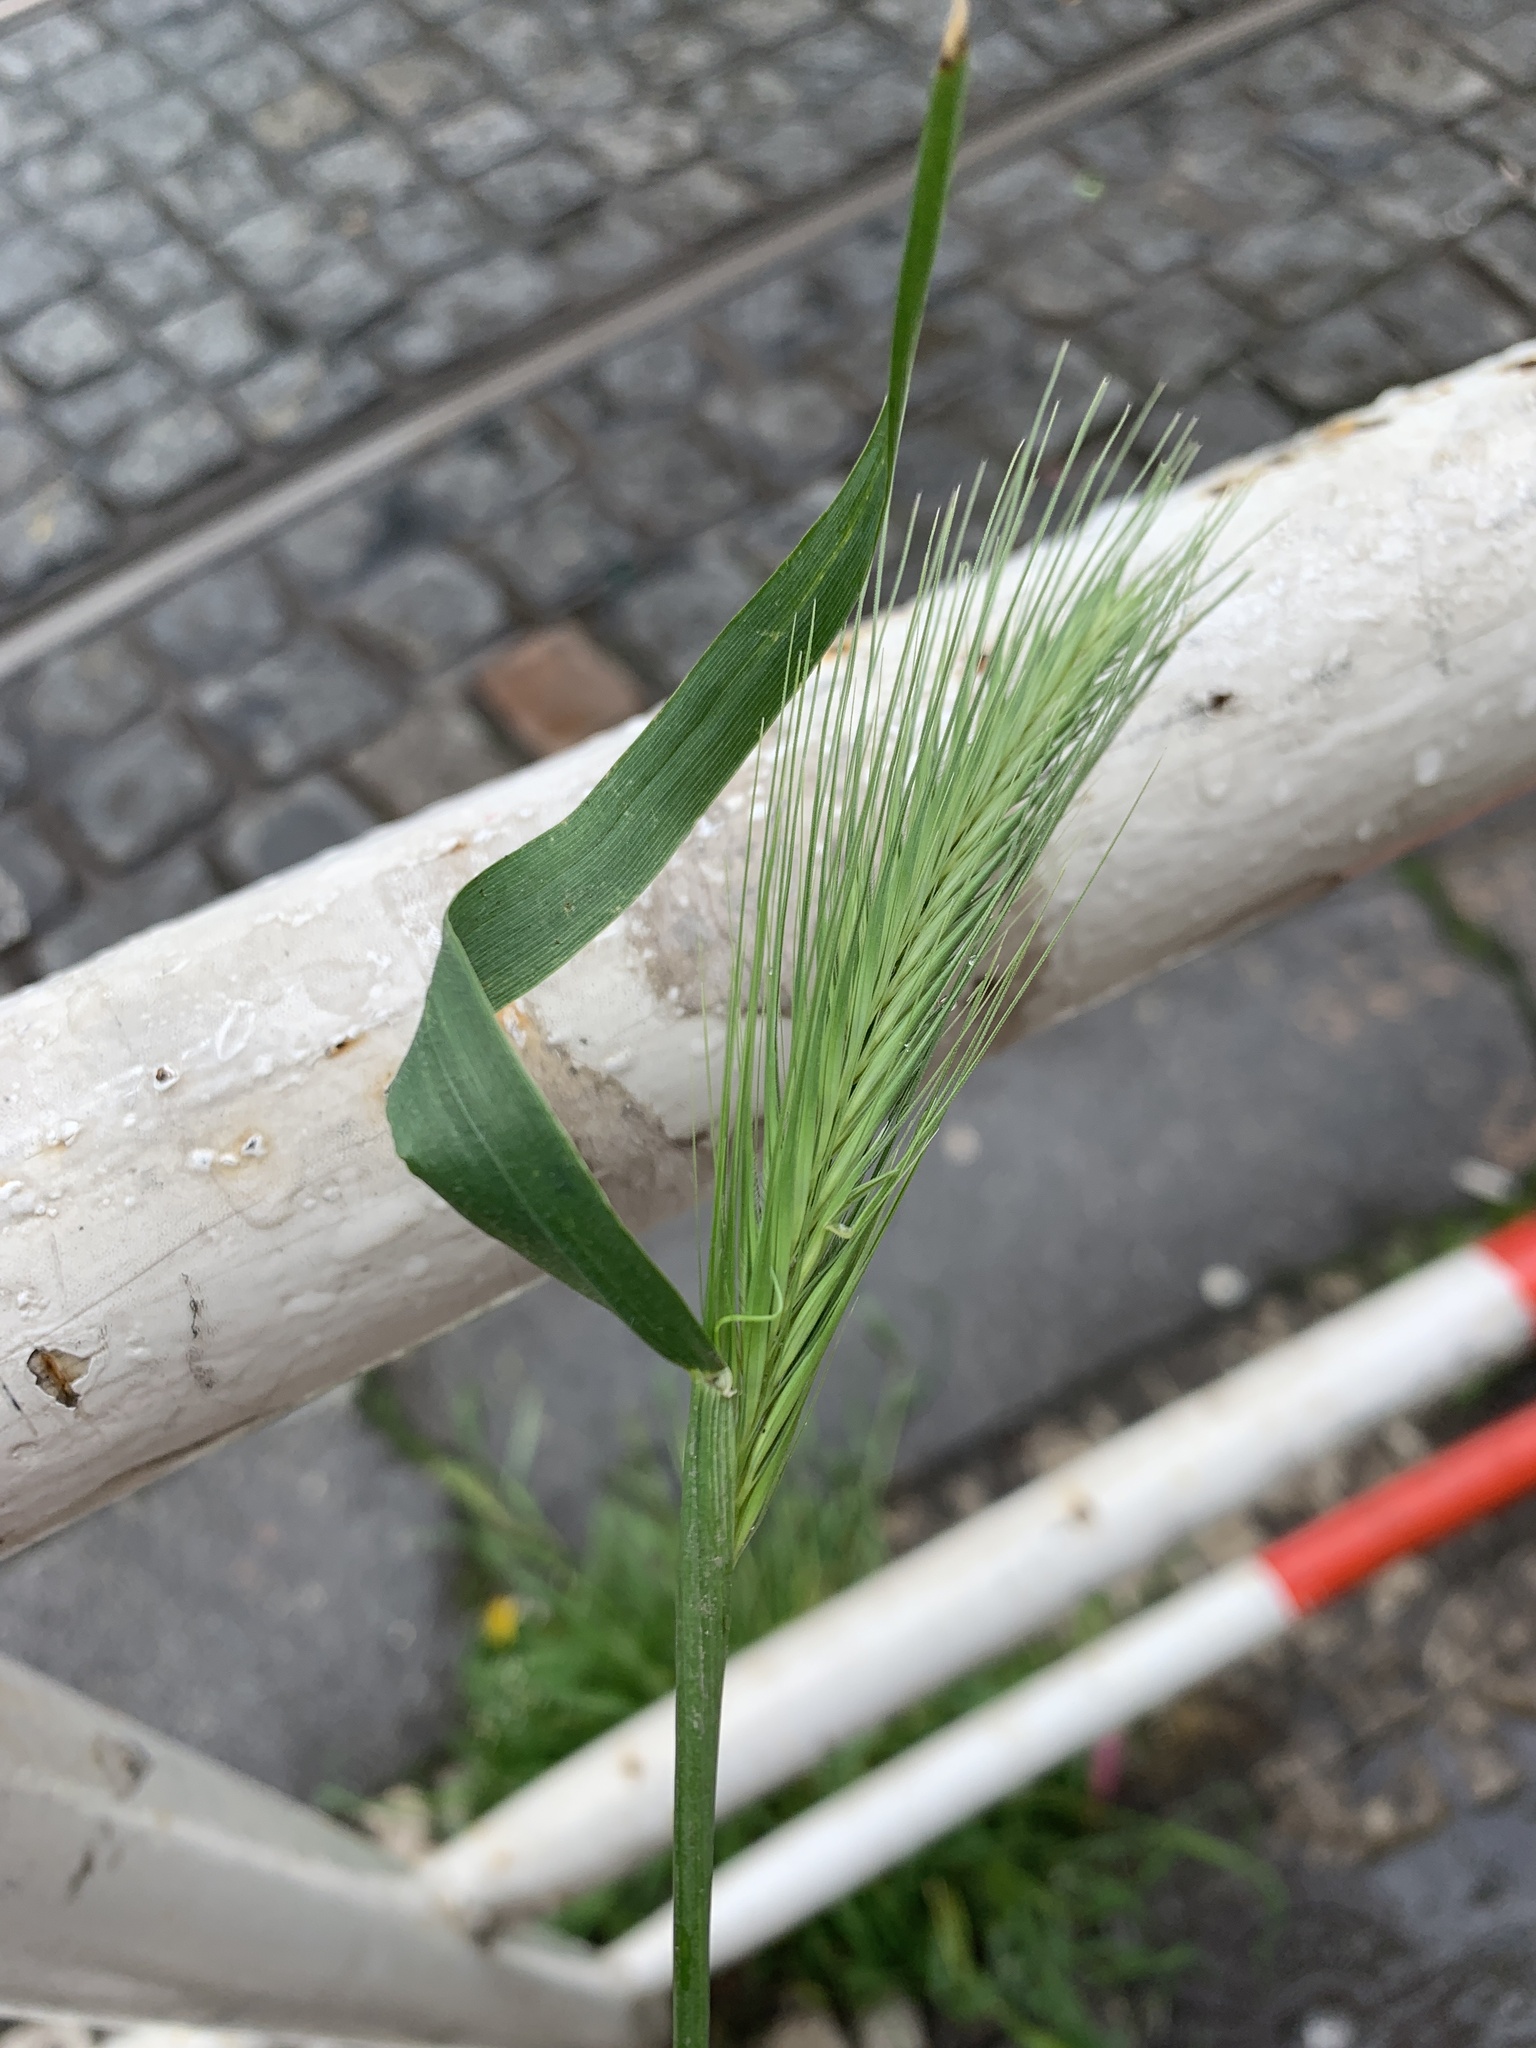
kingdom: Plantae
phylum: Tracheophyta
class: Liliopsida
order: Poales
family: Poaceae
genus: Hordeum
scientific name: Hordeum murinum
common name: Wall barley
